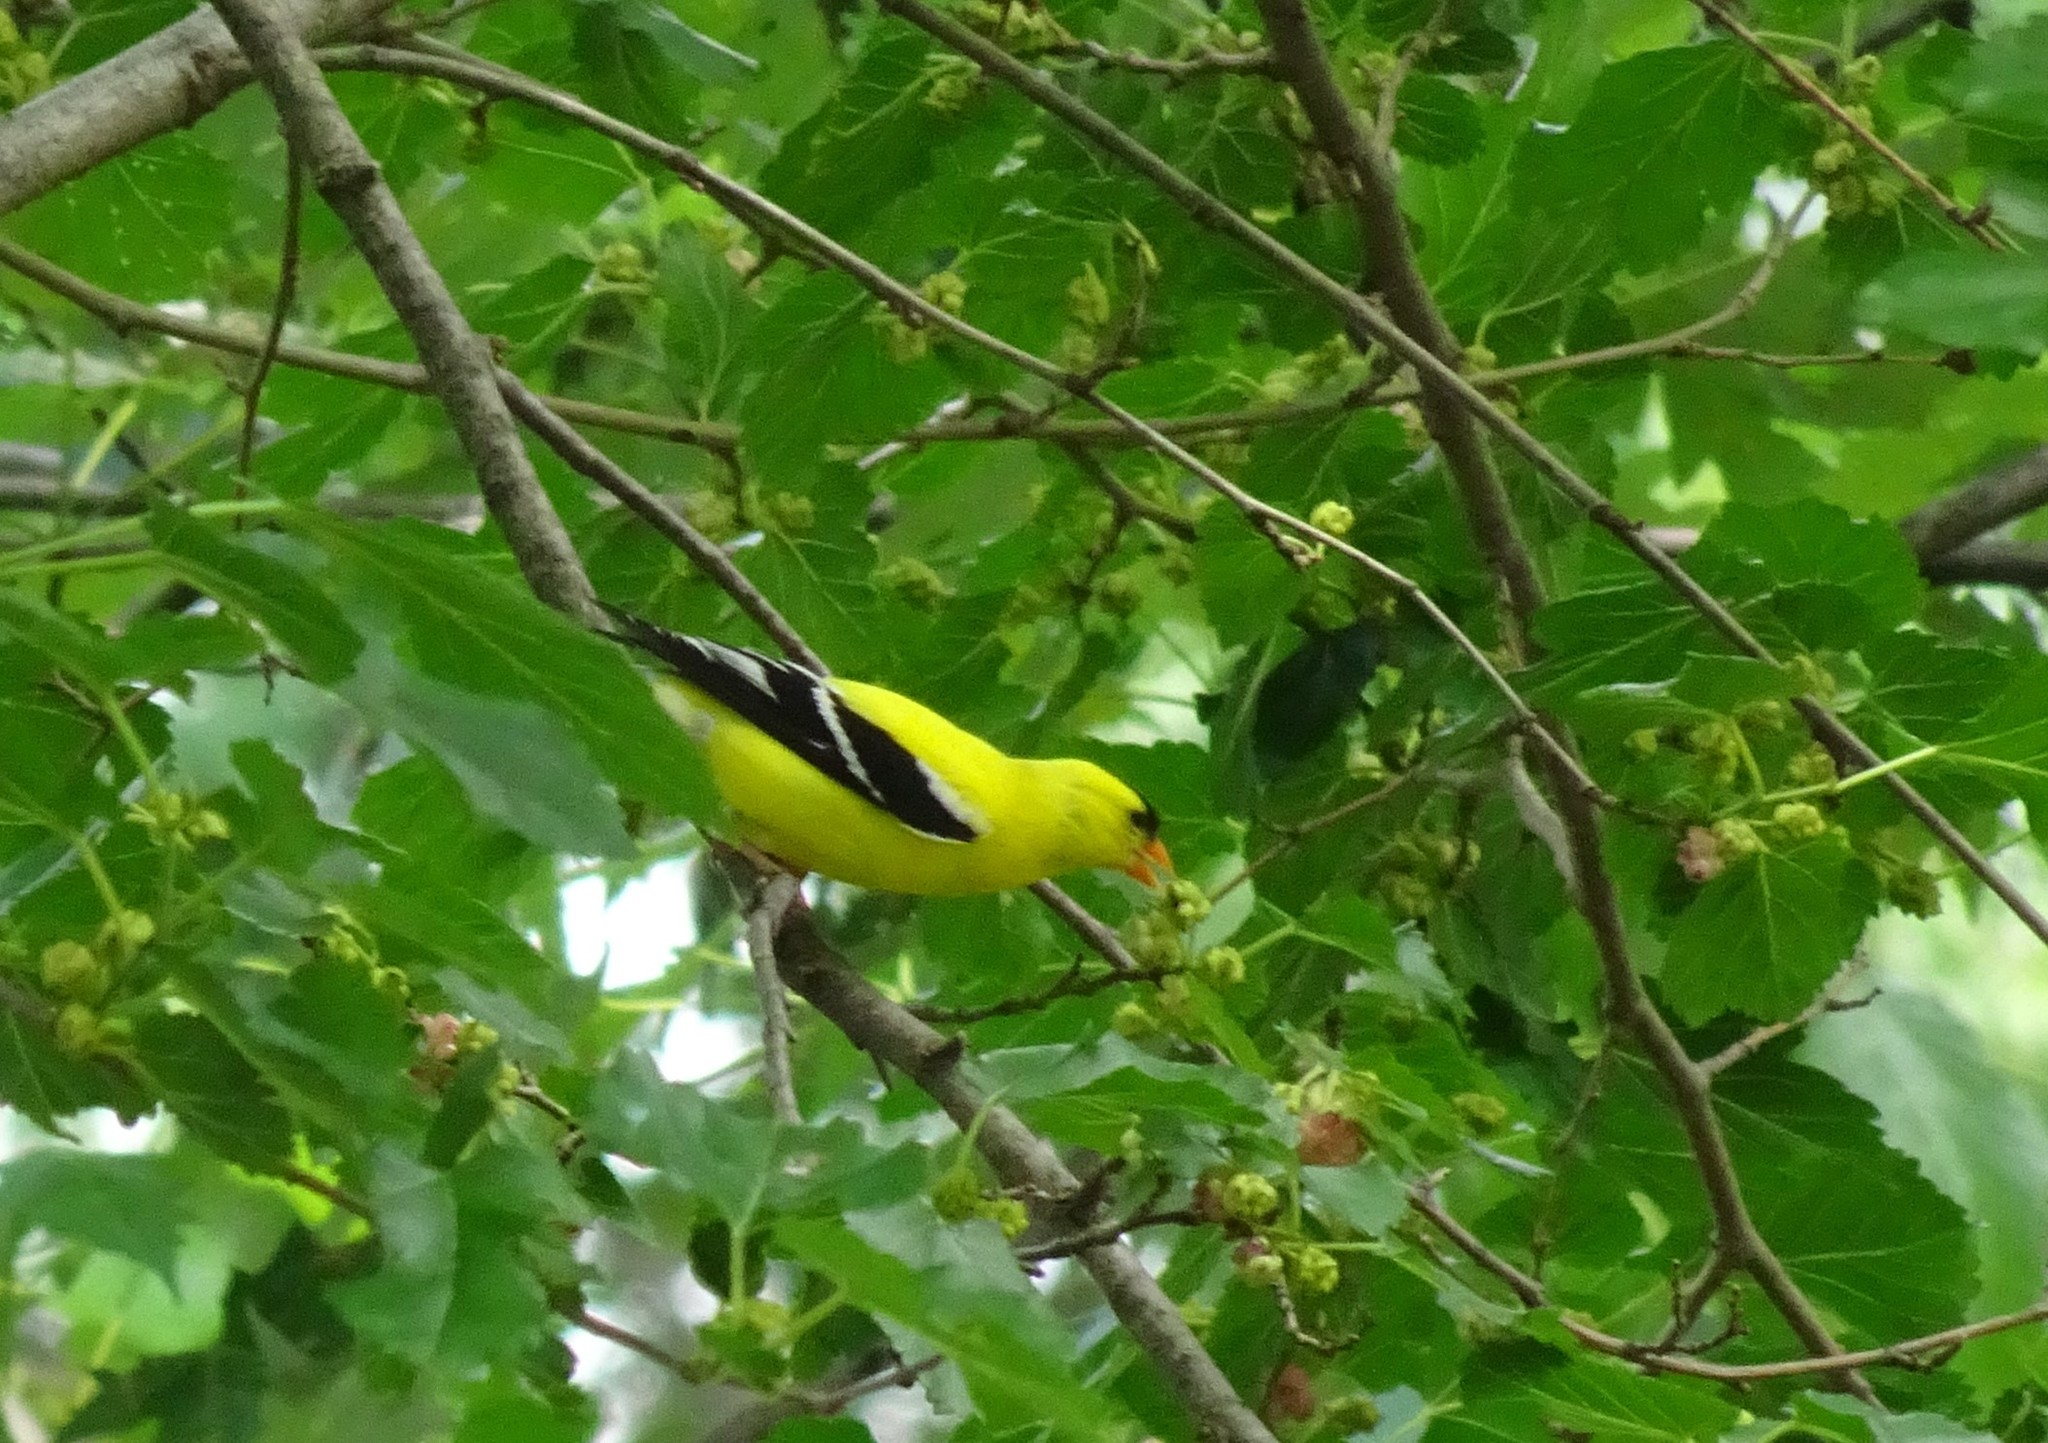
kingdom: Animalia
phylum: Chordata
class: Aves
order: Passeriformes
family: Fringillidae
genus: Spinus
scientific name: Spinus tristis
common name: American goldfinch
